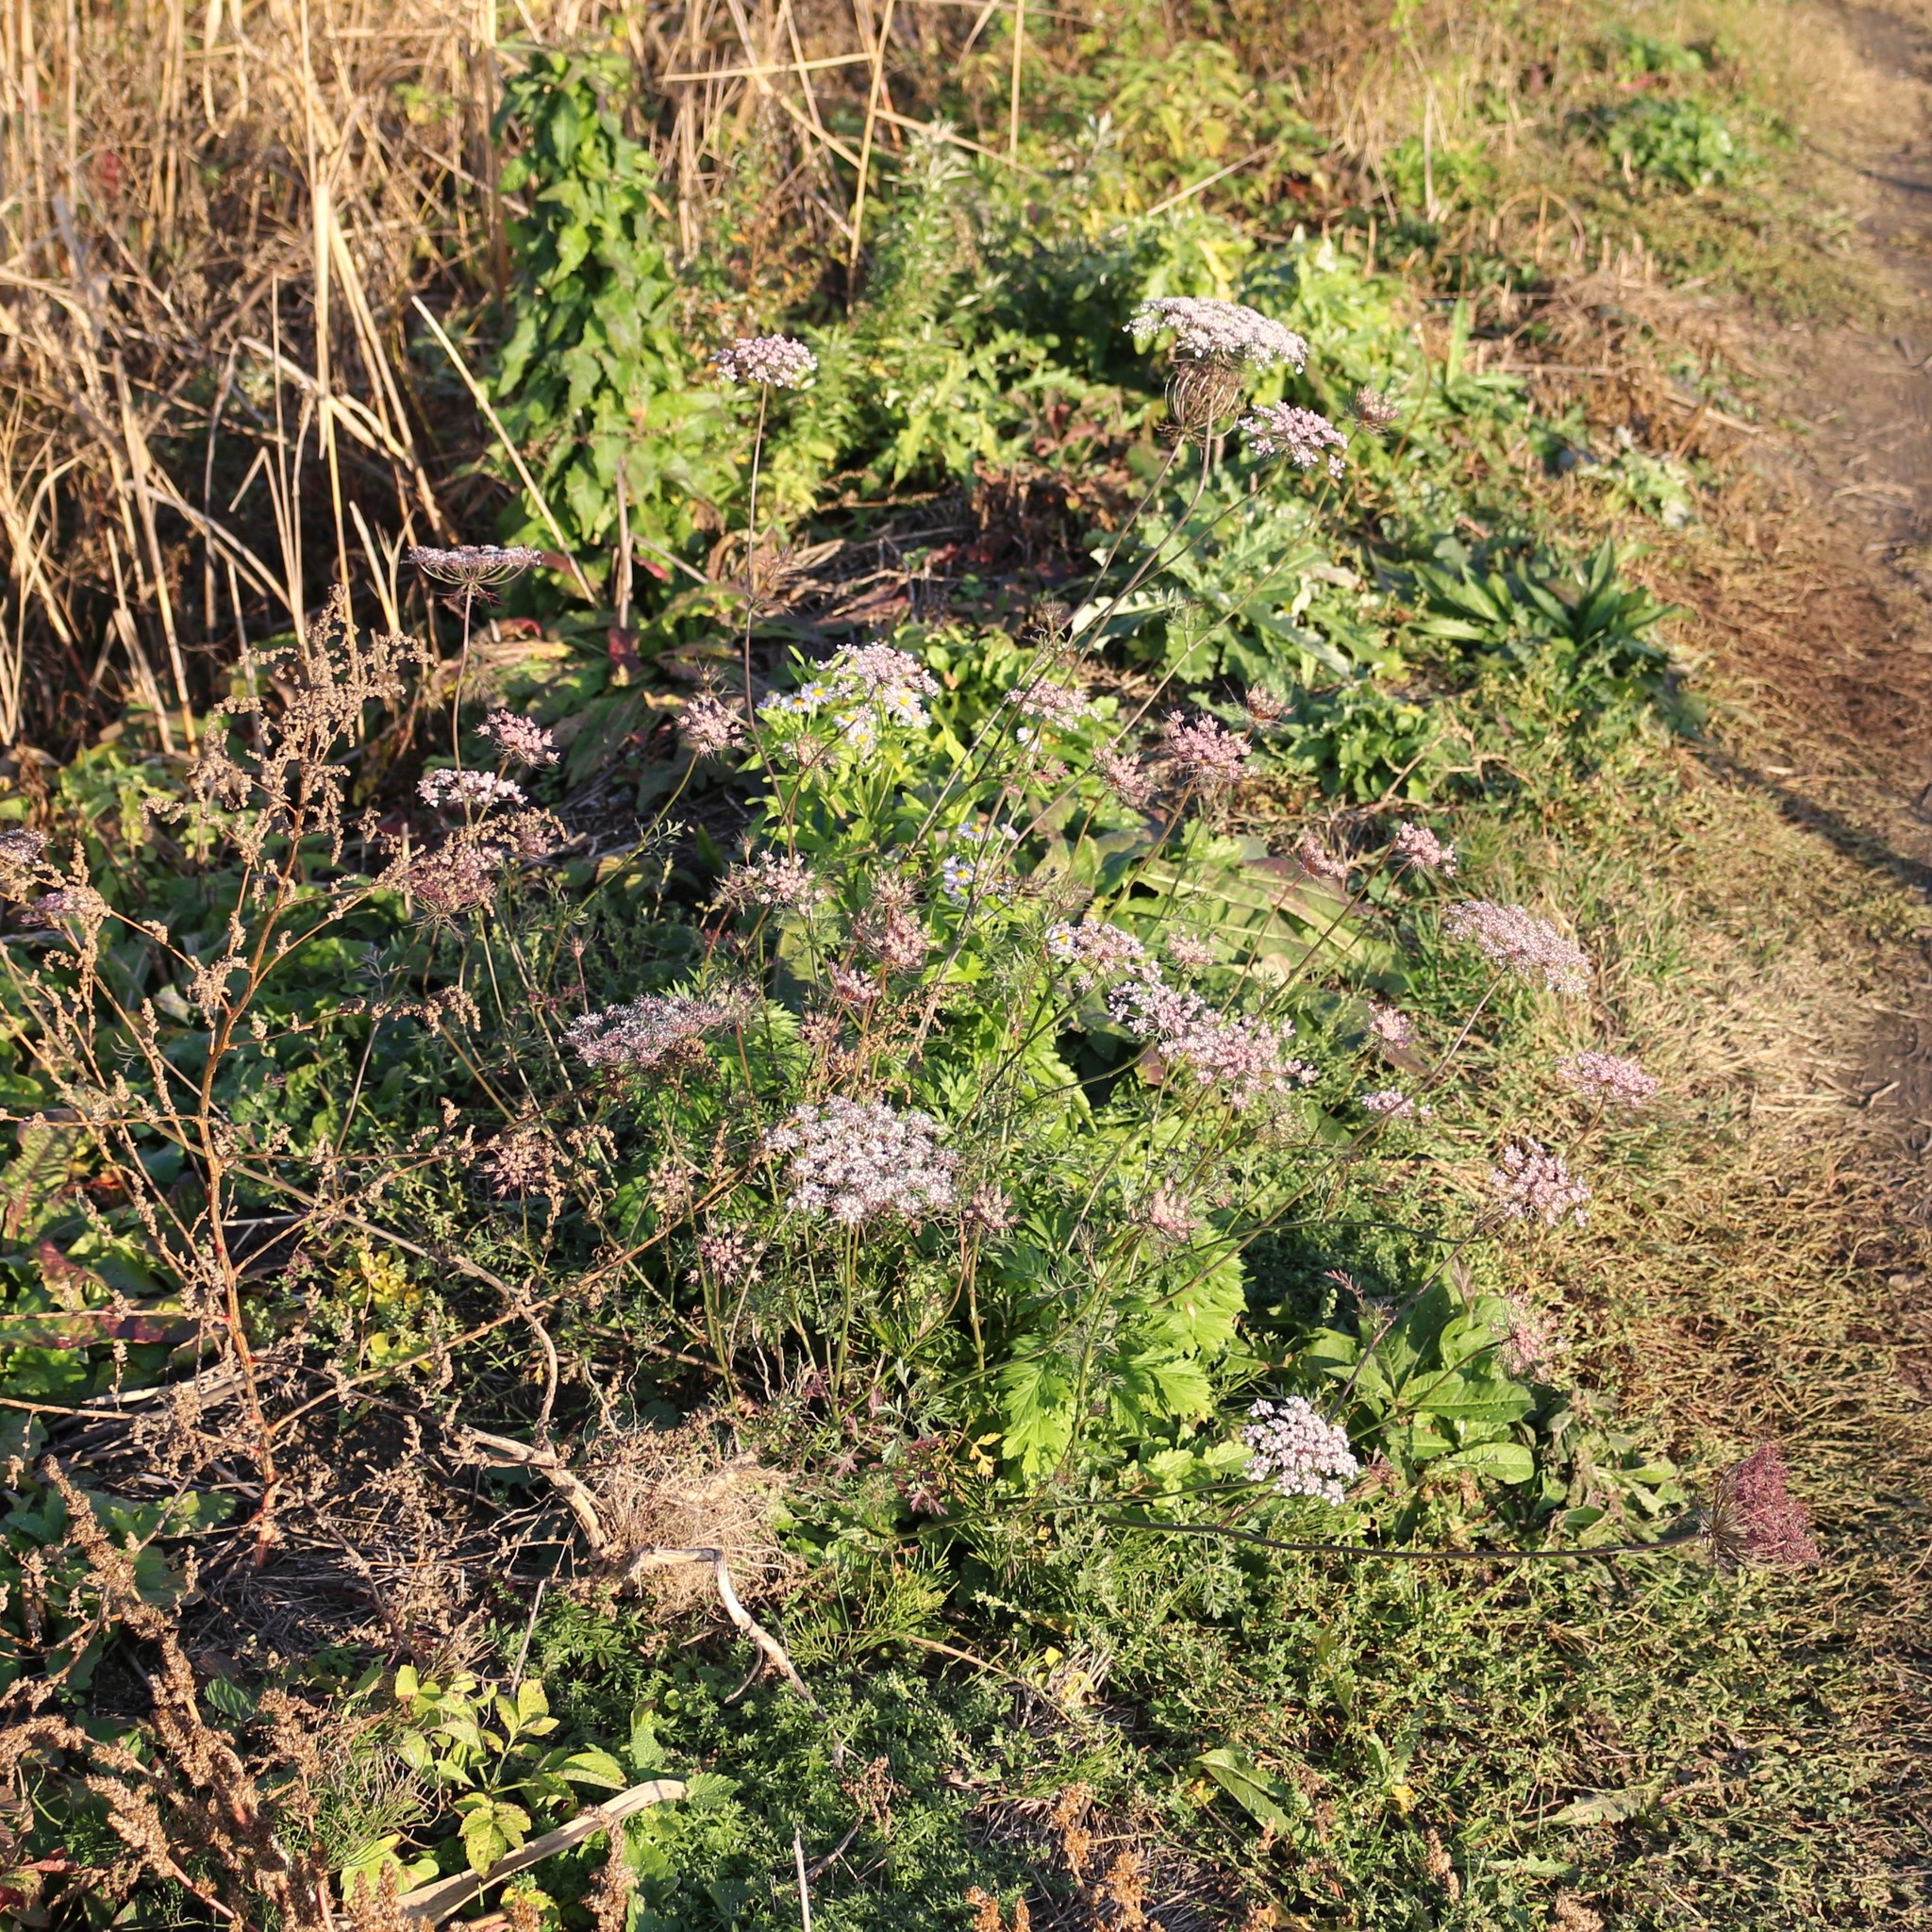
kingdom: Plantae
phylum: Tracheophyta
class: Magnoliopsida
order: Apiales
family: Apiaceae
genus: Daucus
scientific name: Daucus carota
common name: Wild carrot
